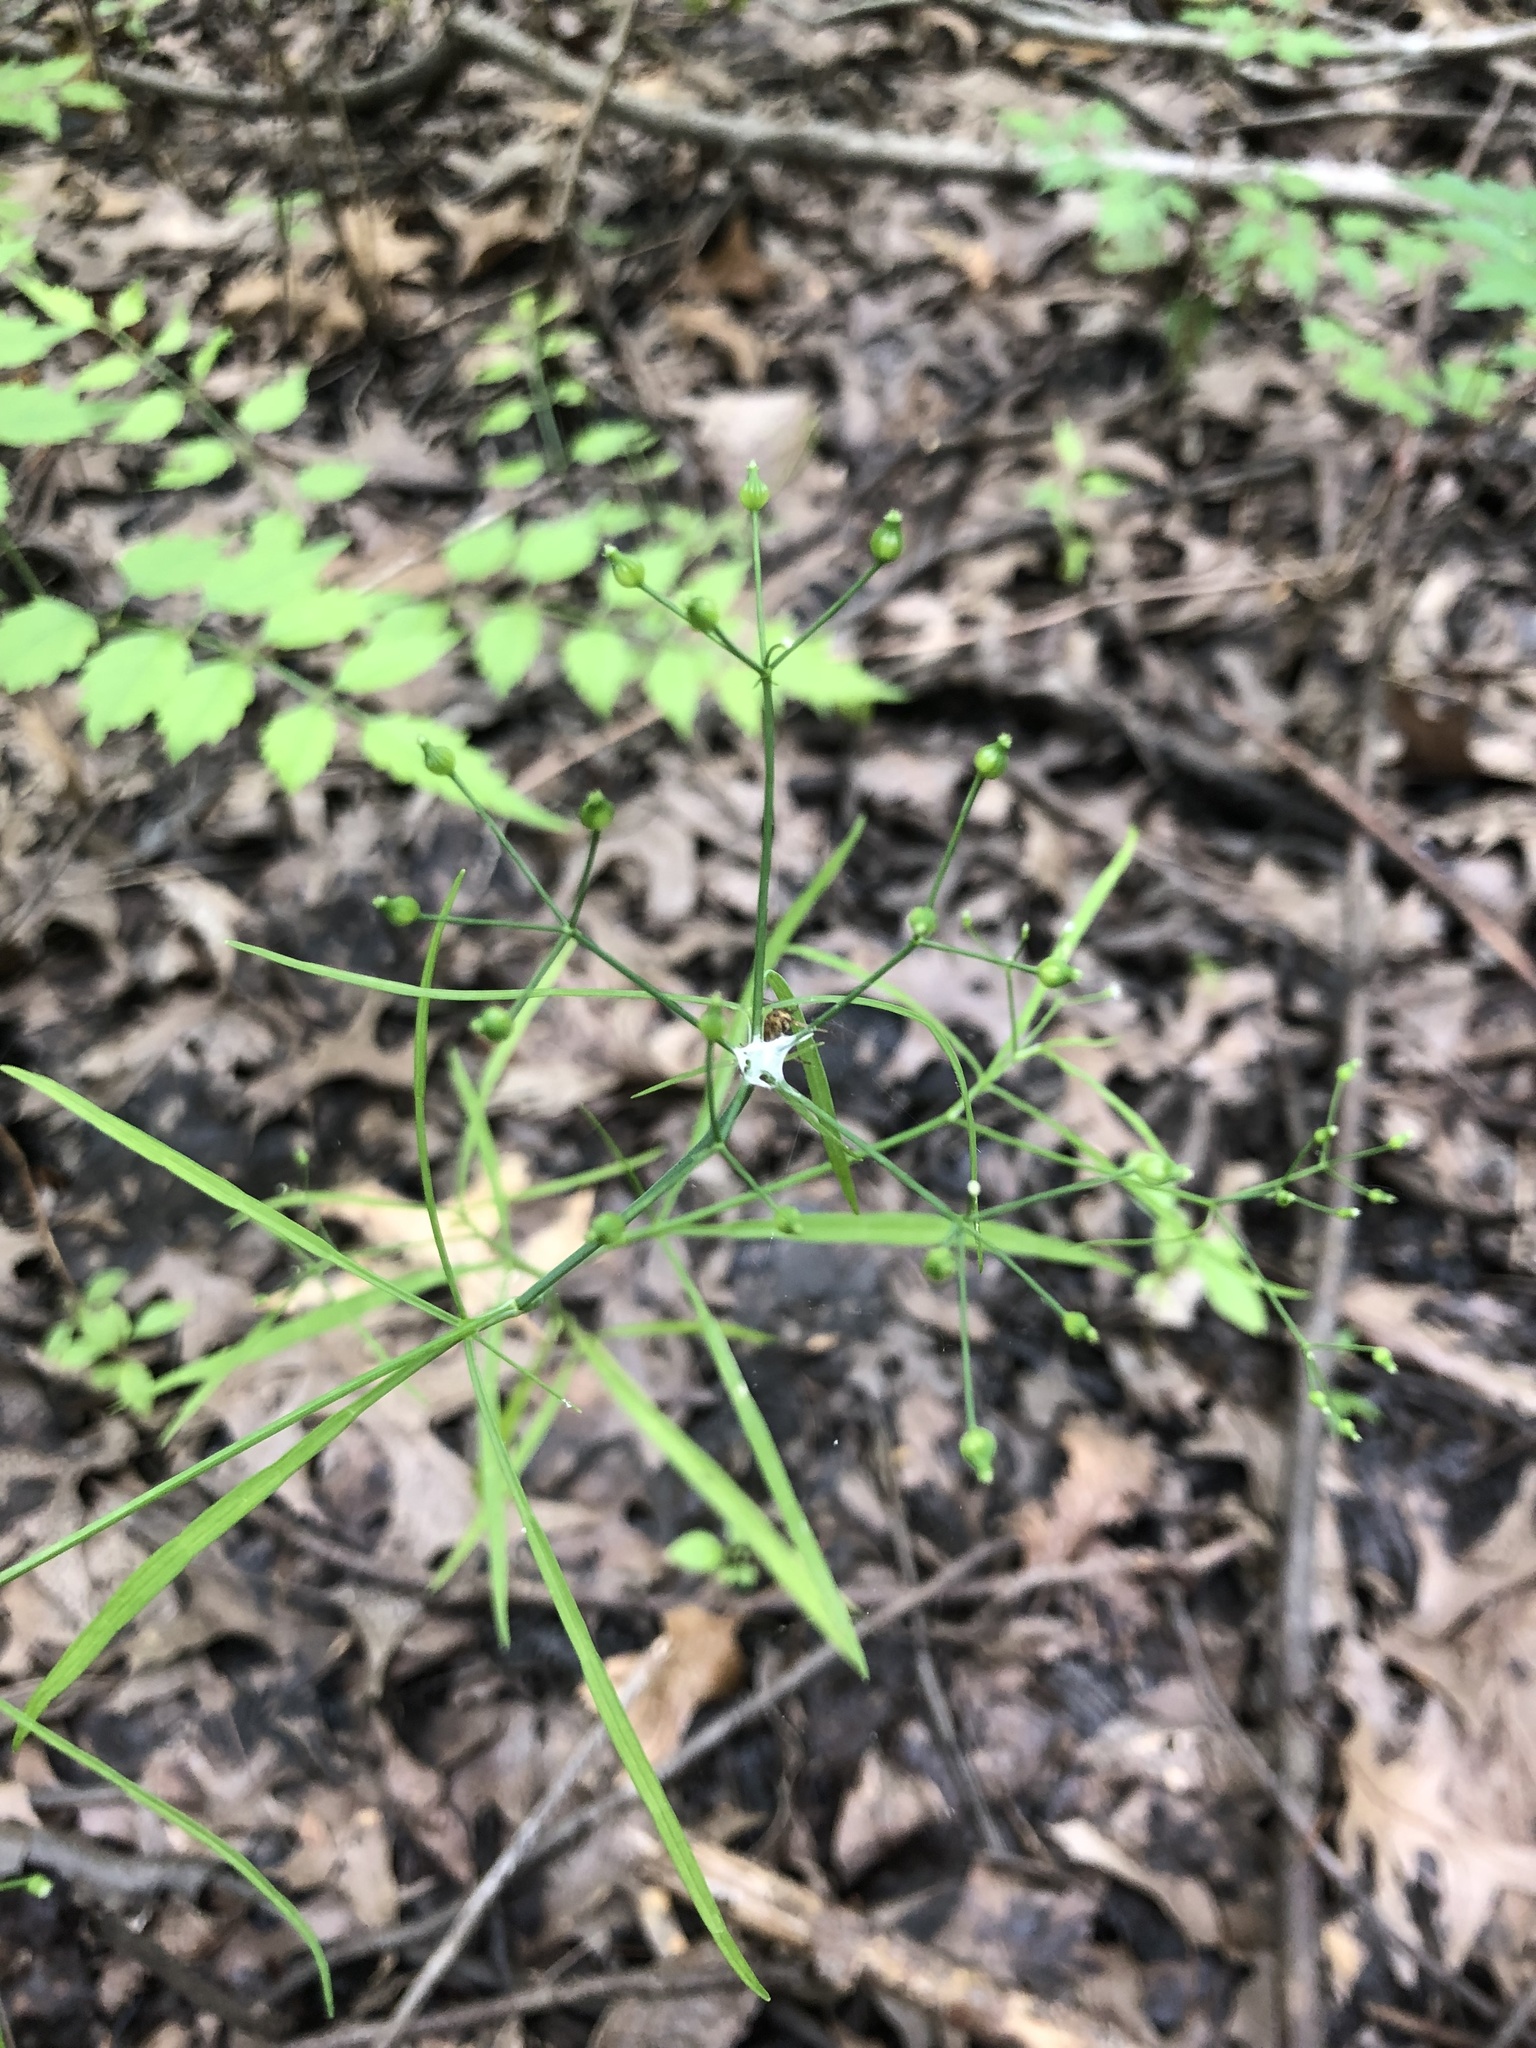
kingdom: Plantae
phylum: Tracheophyta
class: Magnoliopsida
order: Apiales
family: Apiaceae
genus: Cynosciadium
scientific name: Cynosciadium digitatum
